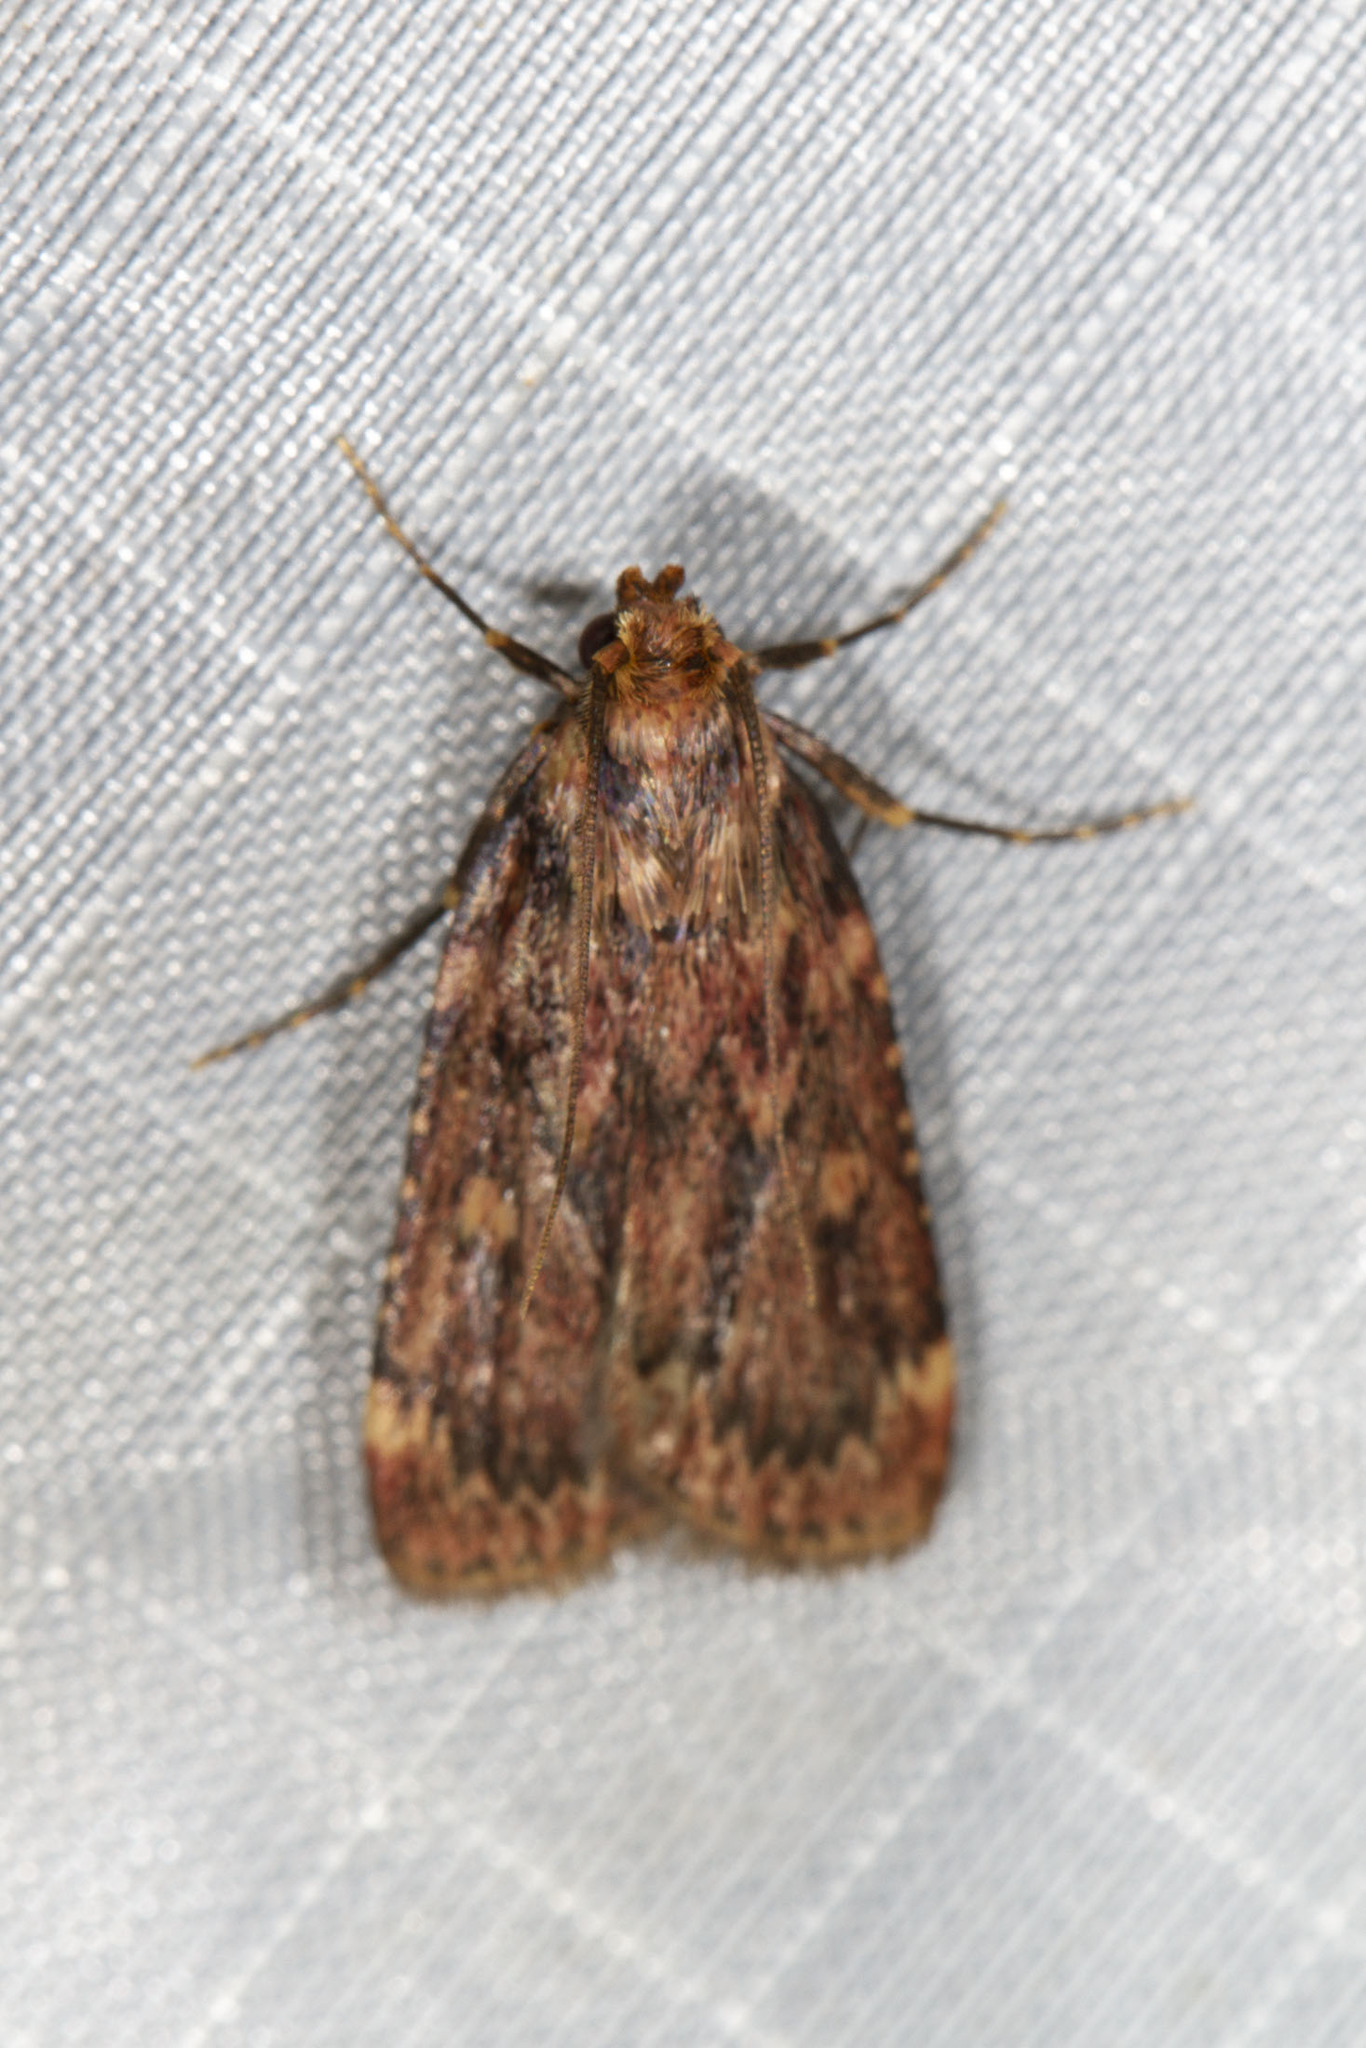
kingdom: Animalia
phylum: Arthropoda
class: Insecta
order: Lepidoptera
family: Pyralidae
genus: Aglossa
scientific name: Aglossa cuprina
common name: Grease moth
